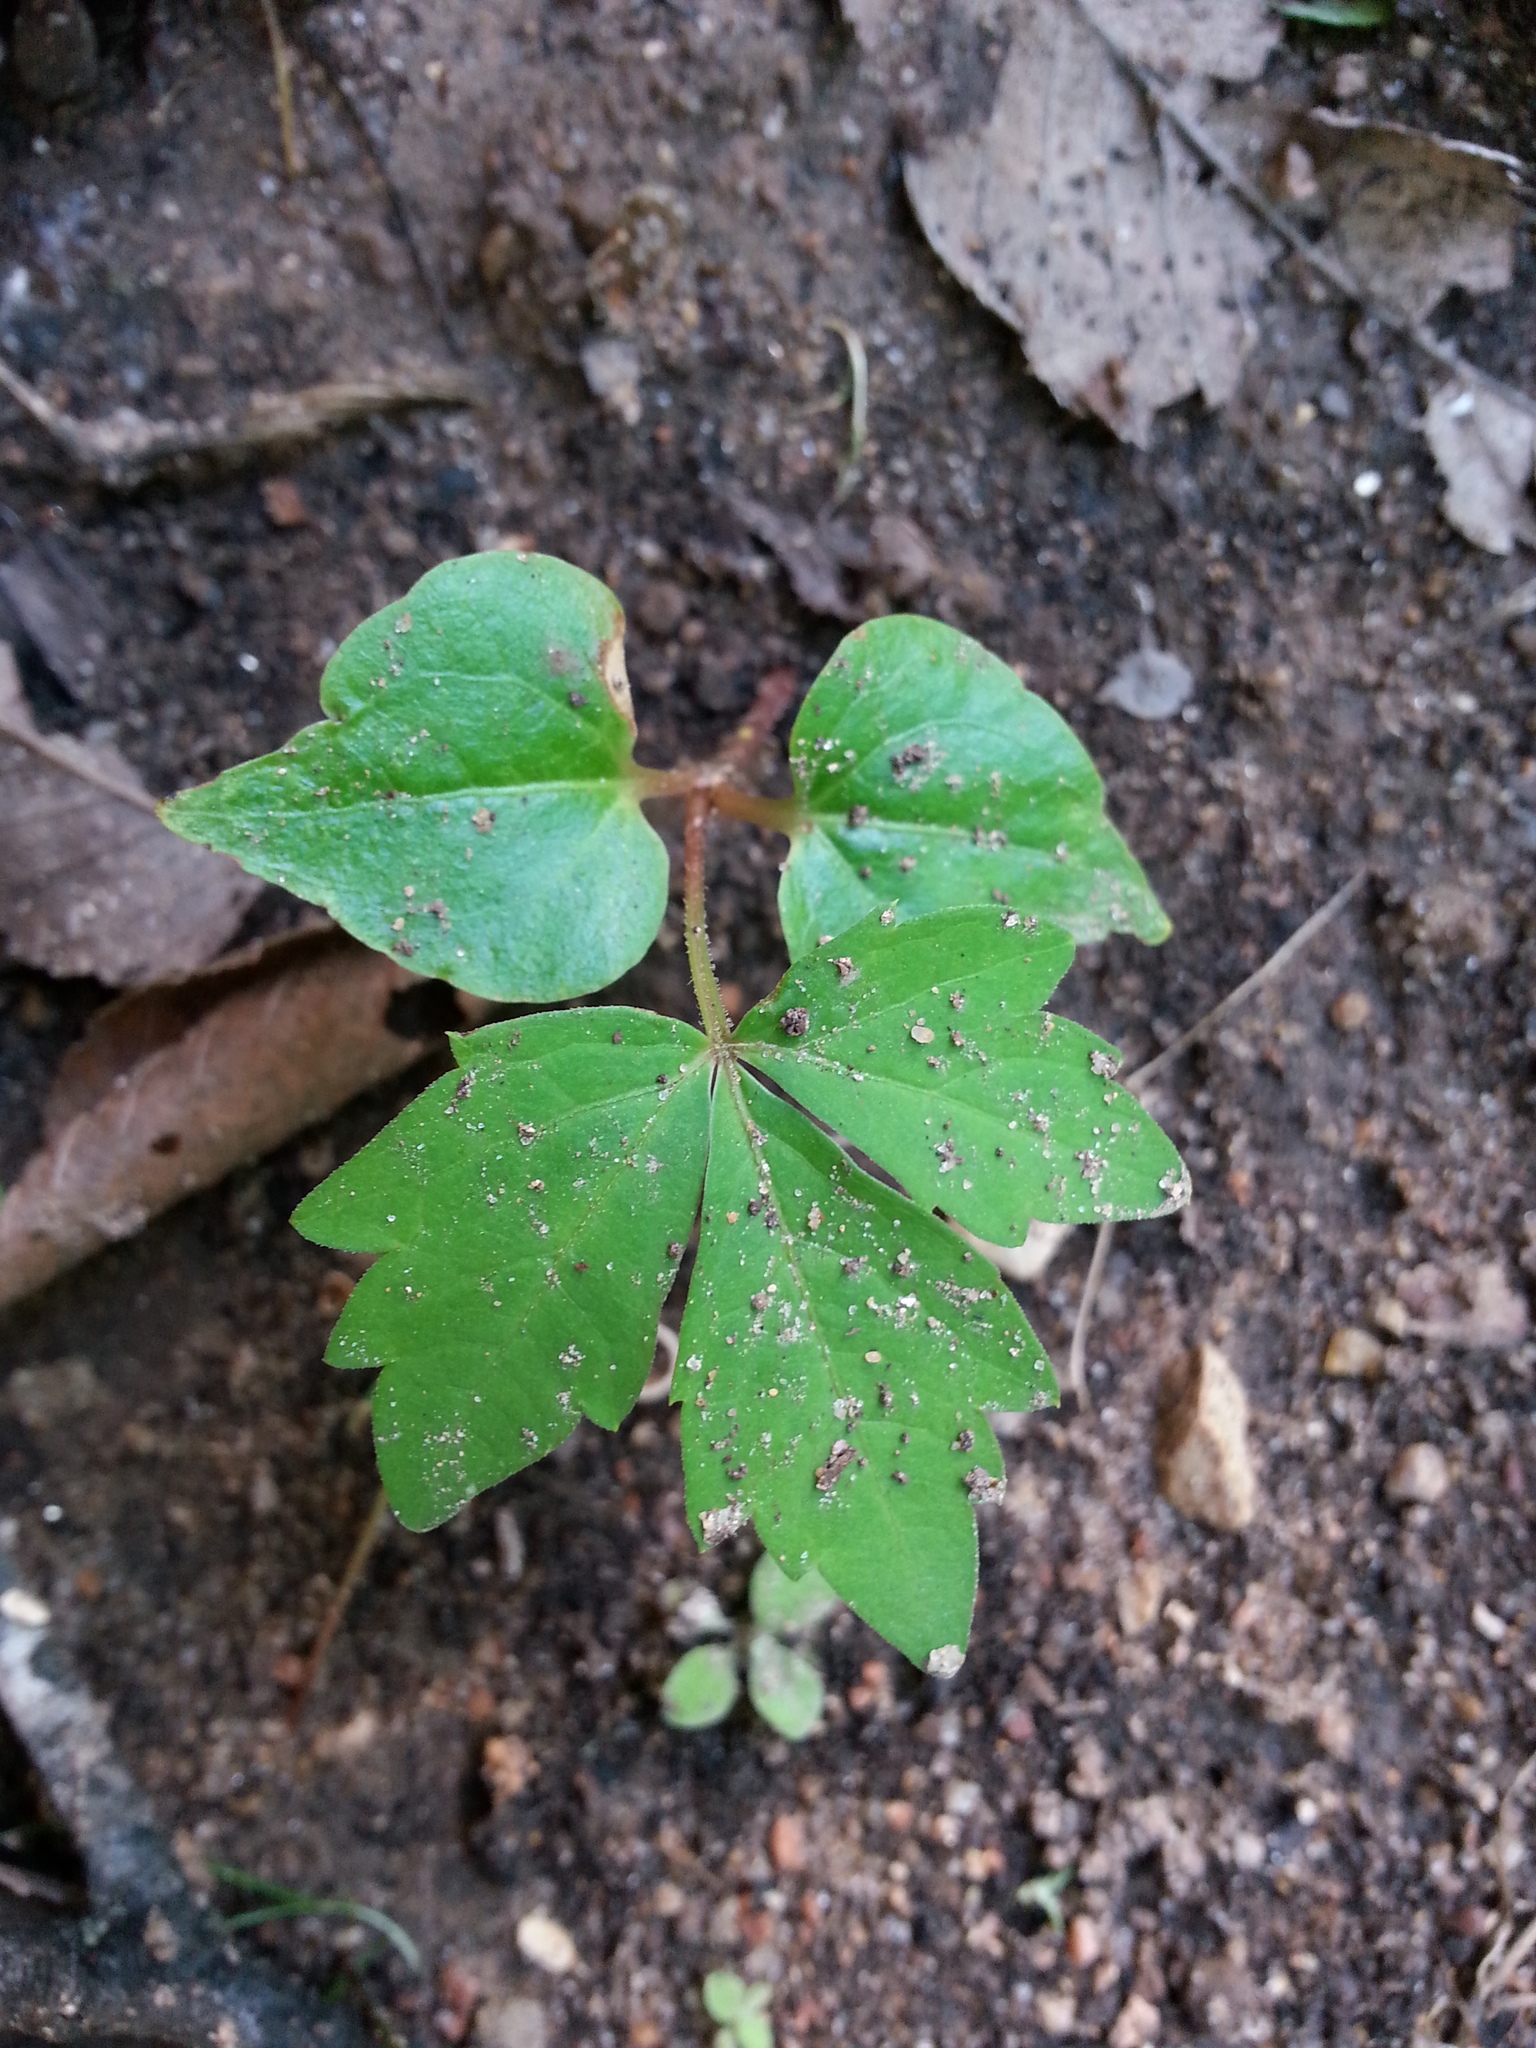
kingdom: Plantae
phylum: Tracheophyta
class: Magnoliopsida
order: Vitales
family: Vitaceae
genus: Parthenocissus
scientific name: Parthenocissus quinquefolia
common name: Virginia-creeper
